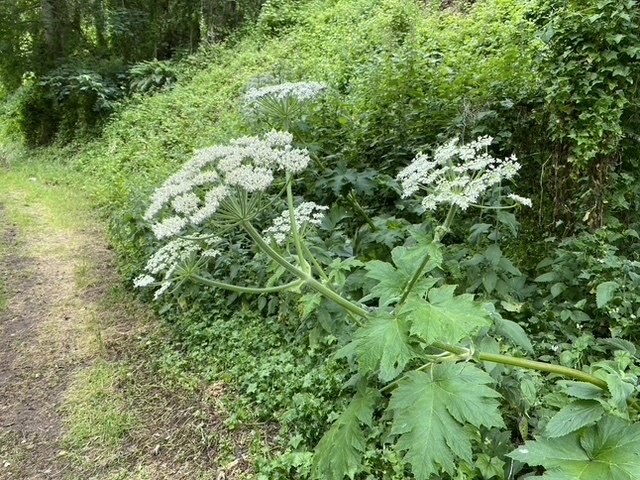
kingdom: Plantae
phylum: Tracheophyta
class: Magnoliopsida
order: Apiales
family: Apiaceae
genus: Heracleum
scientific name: Heracleum maximum
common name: American cow parsnip
